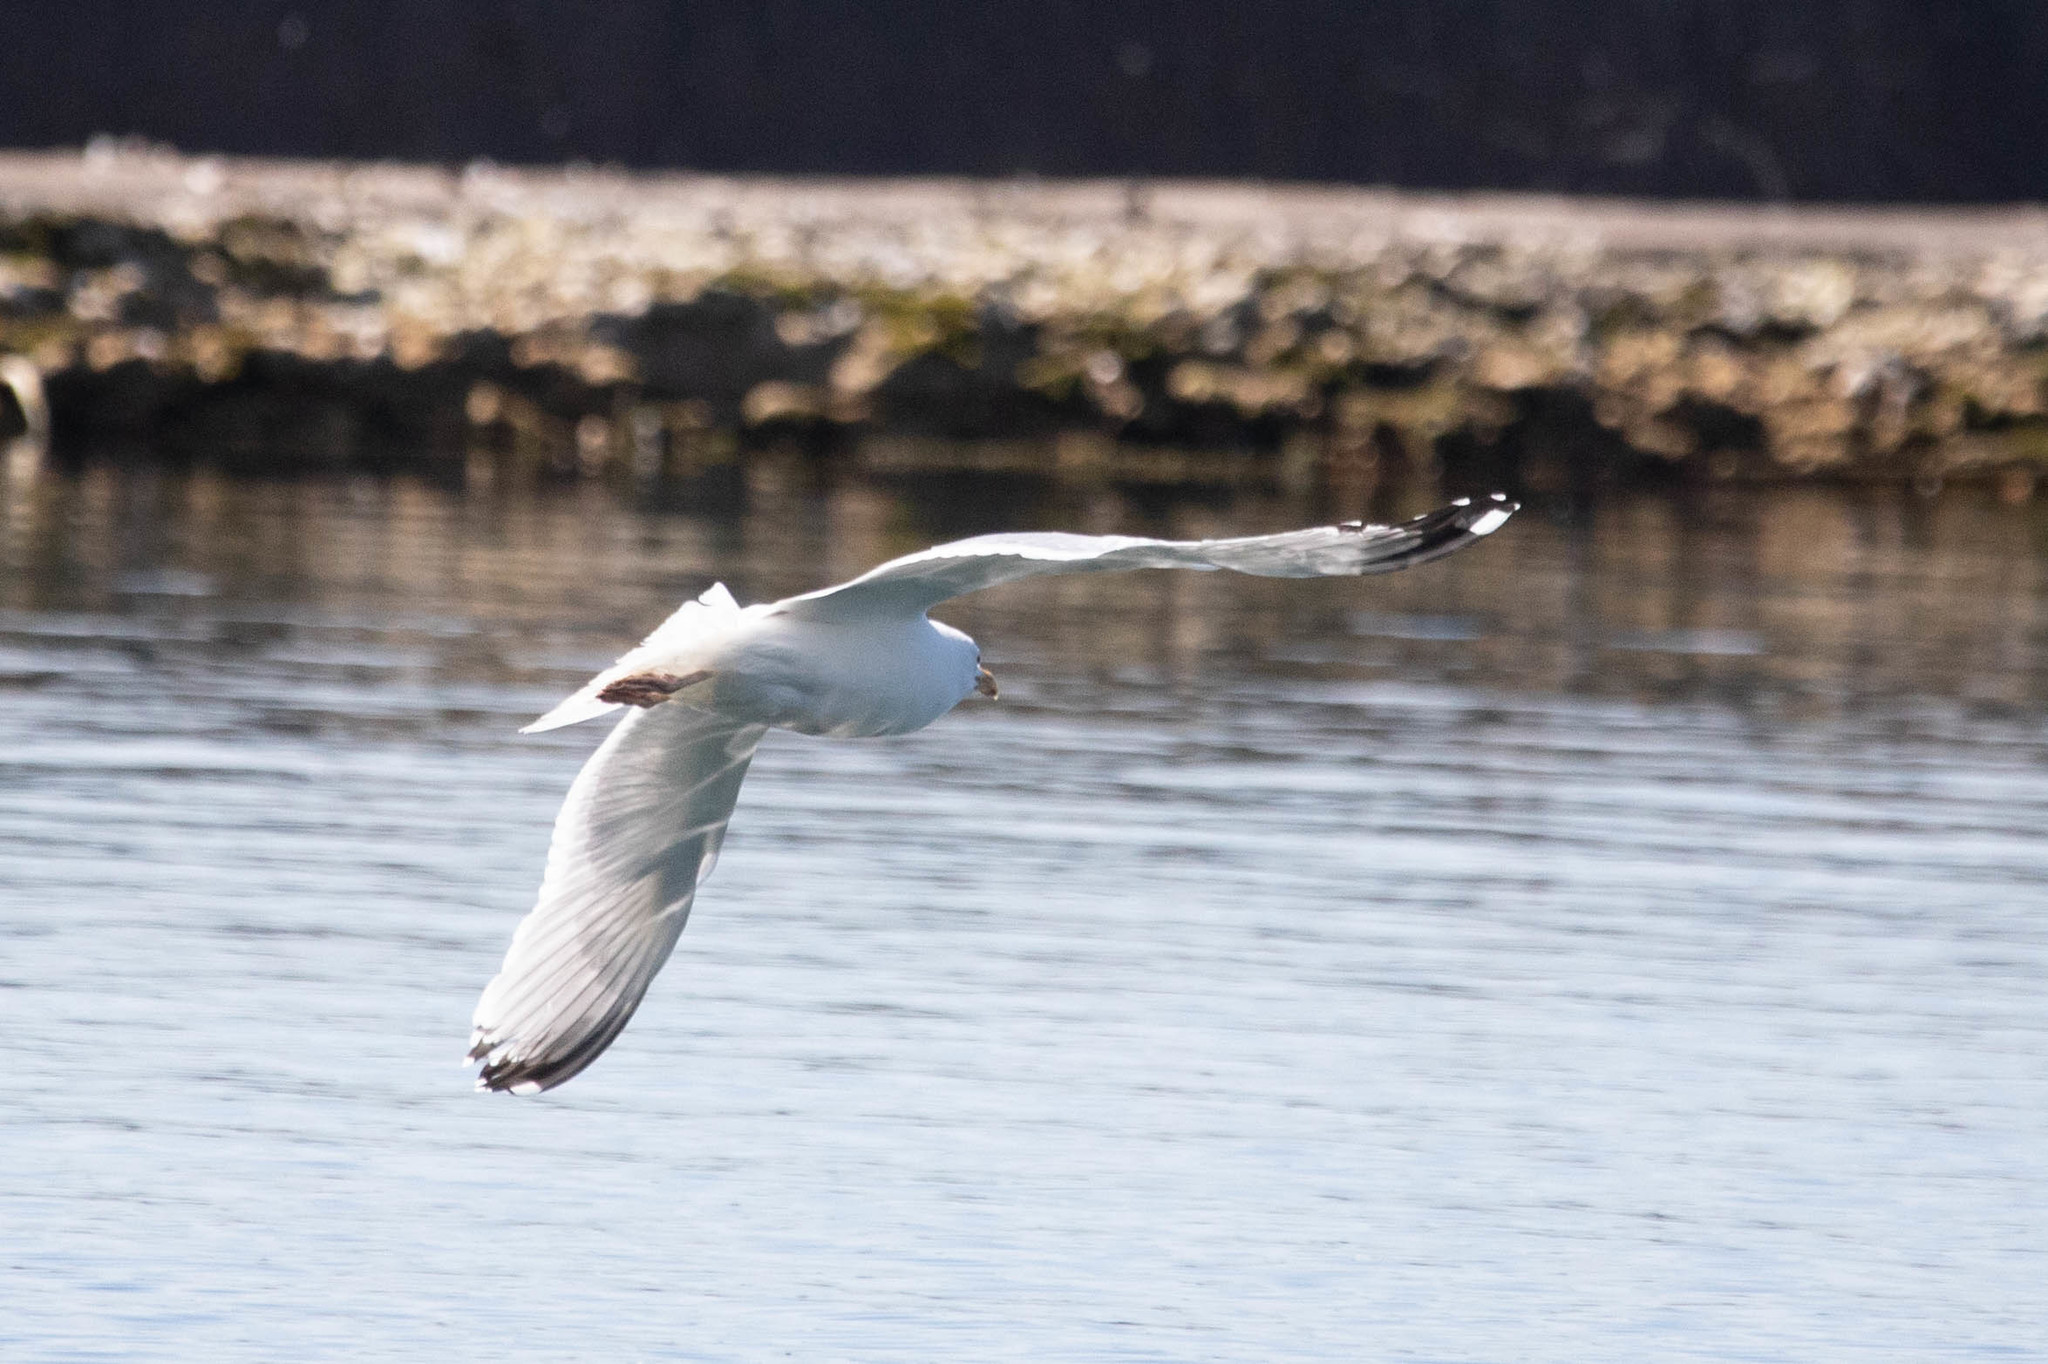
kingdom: Animalia
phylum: Chordata
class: Aves
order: Charadriiformes
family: Laridae
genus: Larus
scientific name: Larus argentatus
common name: Herring gull
